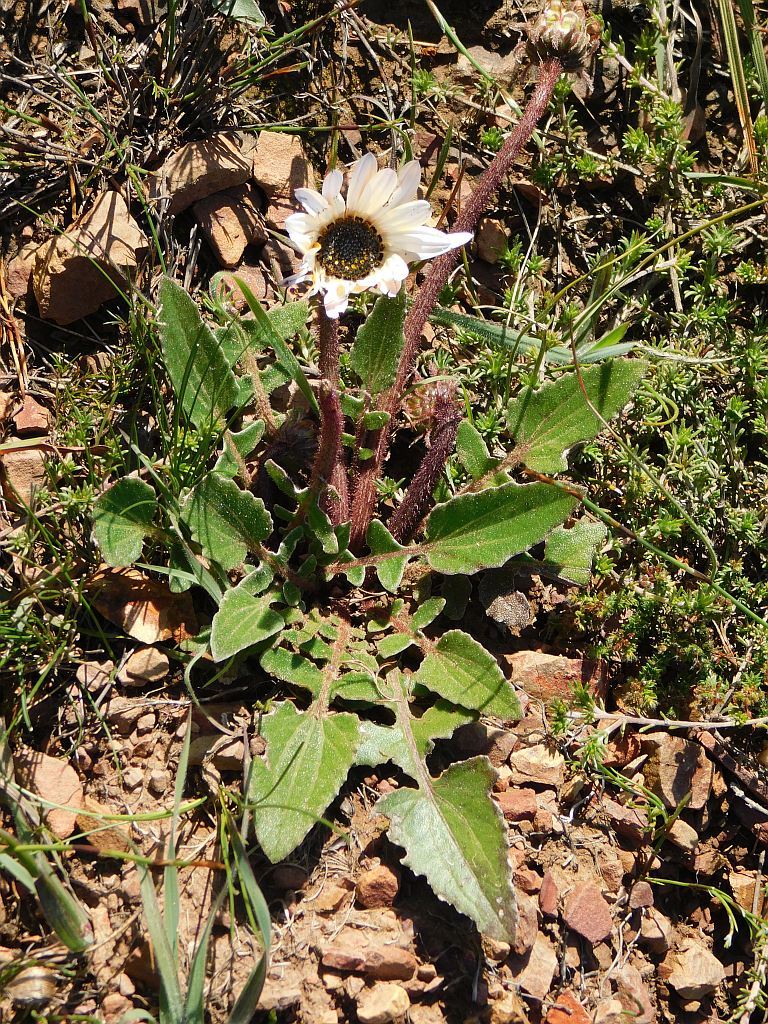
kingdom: Plantae
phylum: Tracheophyta
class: Magnoliopsida
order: Asterales
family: Asteraceae
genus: Arctotis
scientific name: Arctotis acaulis
